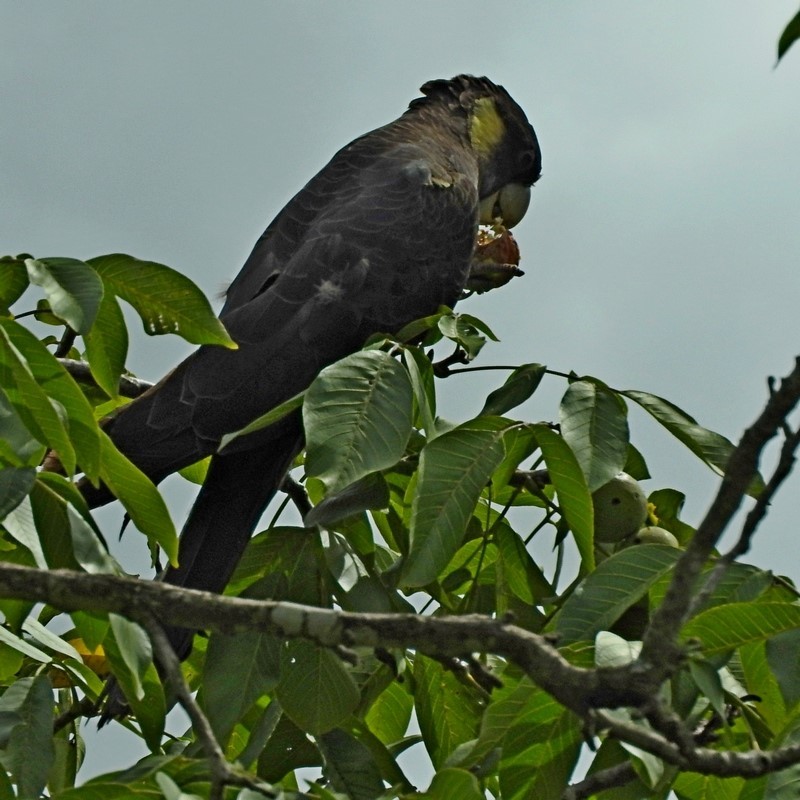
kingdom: Animalia
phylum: Chordata
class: Aves
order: Psittaciformes
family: Cacatuidae
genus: Zanda
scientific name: Zanda funerea
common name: Yellow-tailed black-cockatoo
